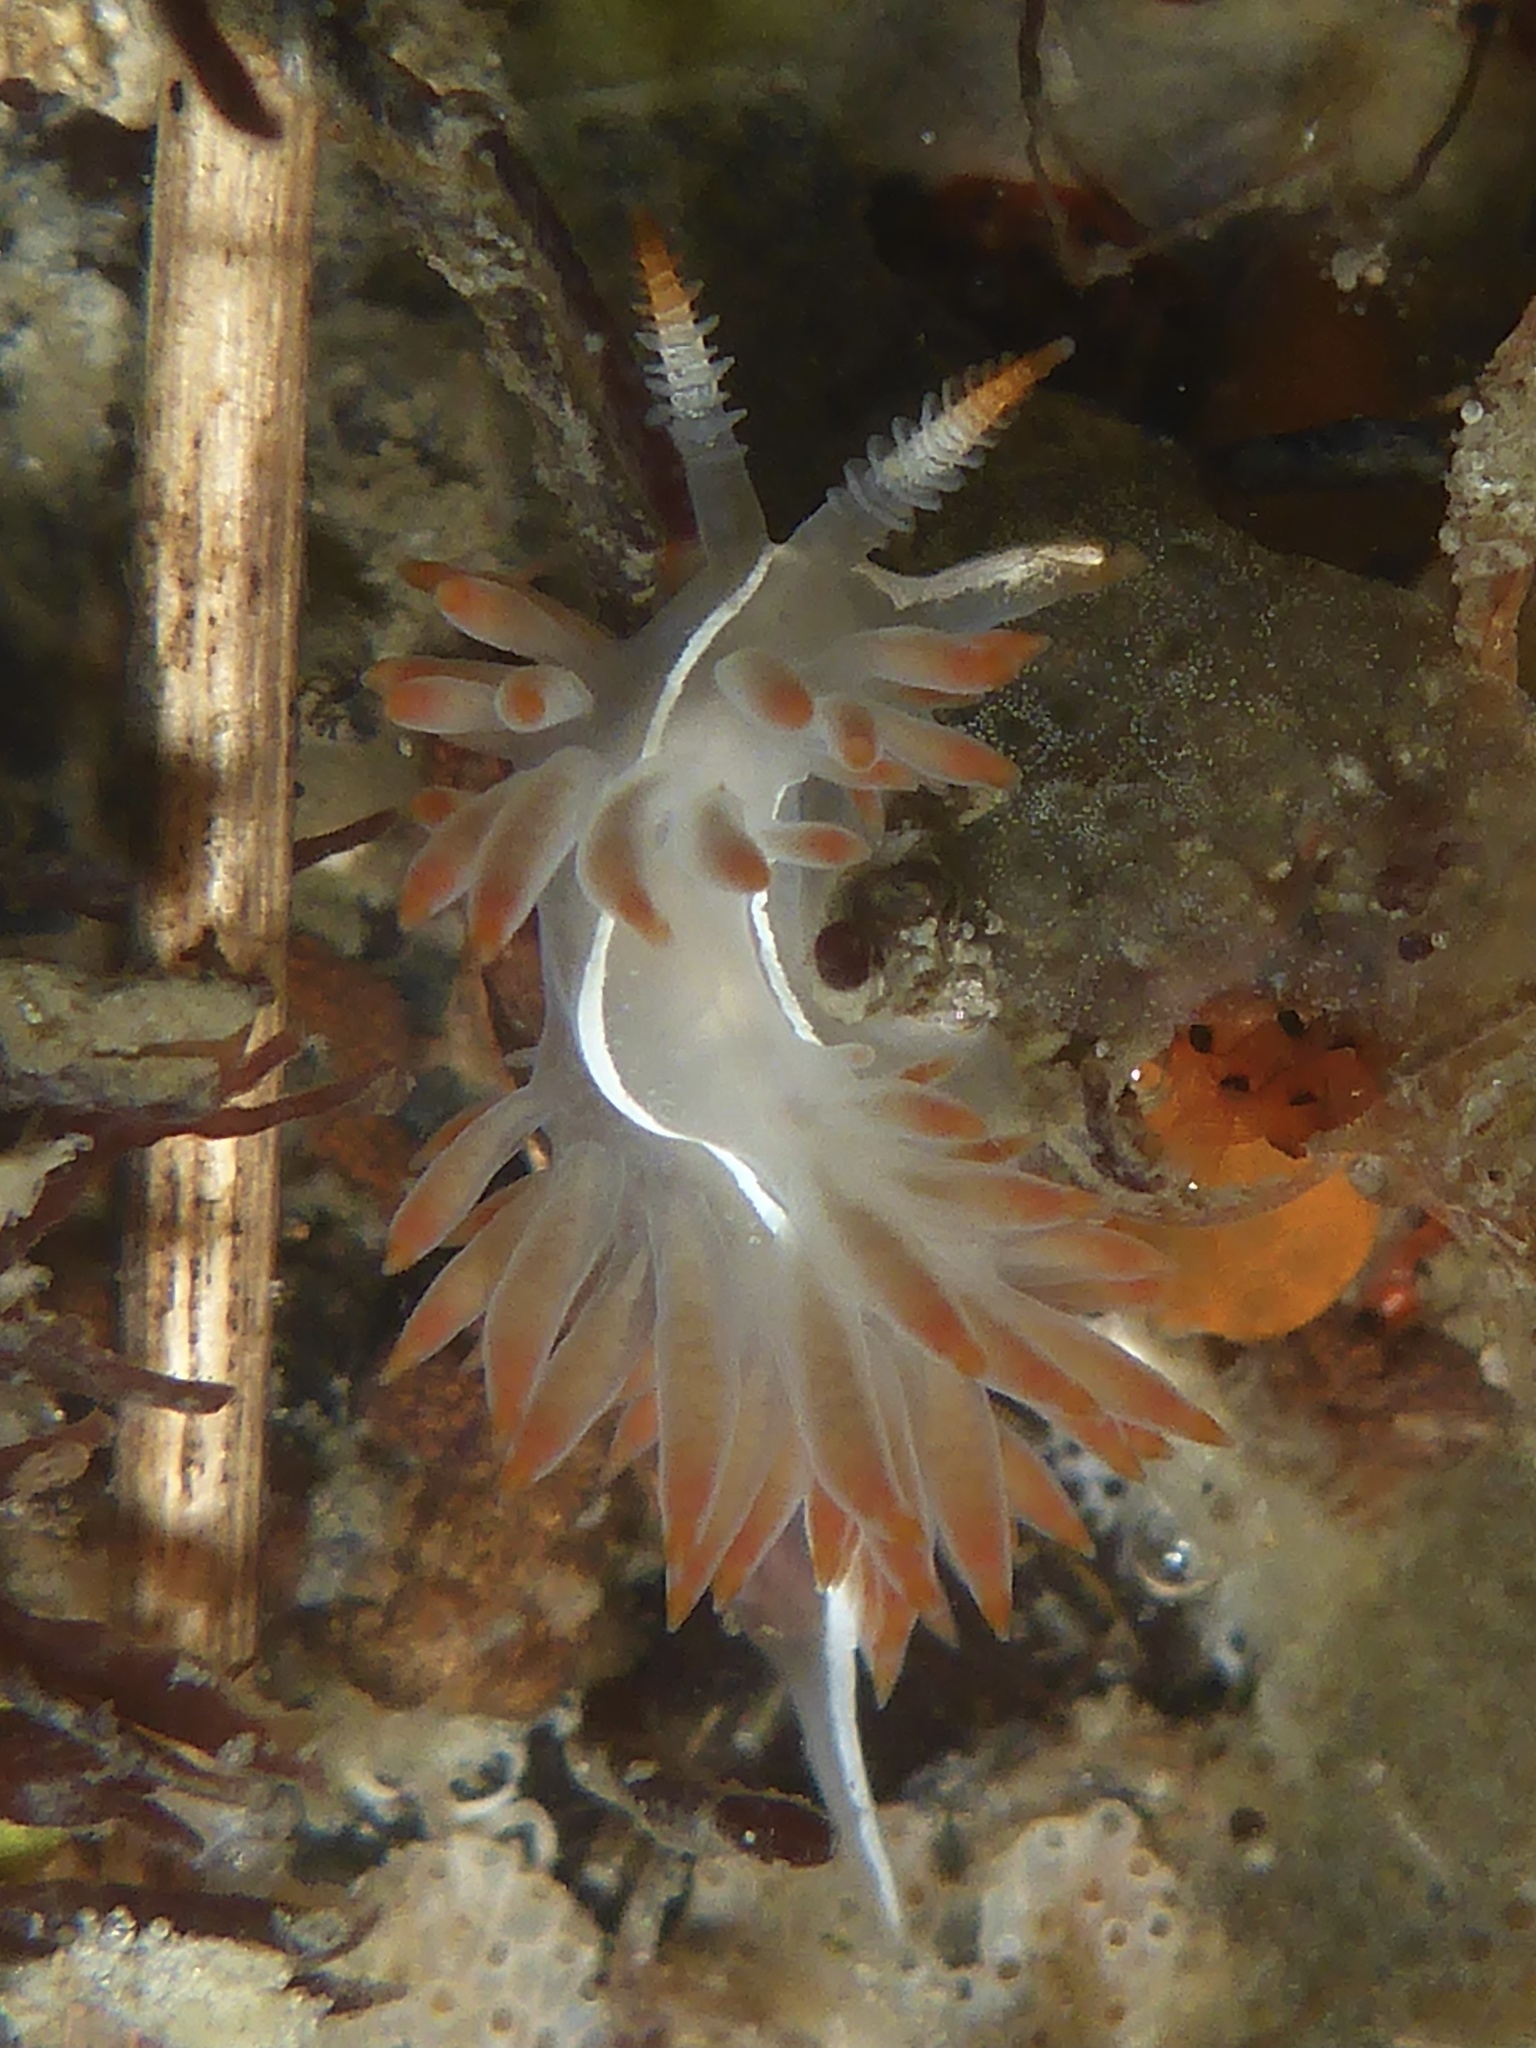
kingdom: Animalia
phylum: Mollusca
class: Gastropoda
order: Nudibranchia
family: Coryphellidae
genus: Coryphella
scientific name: Coryphella trilineata
